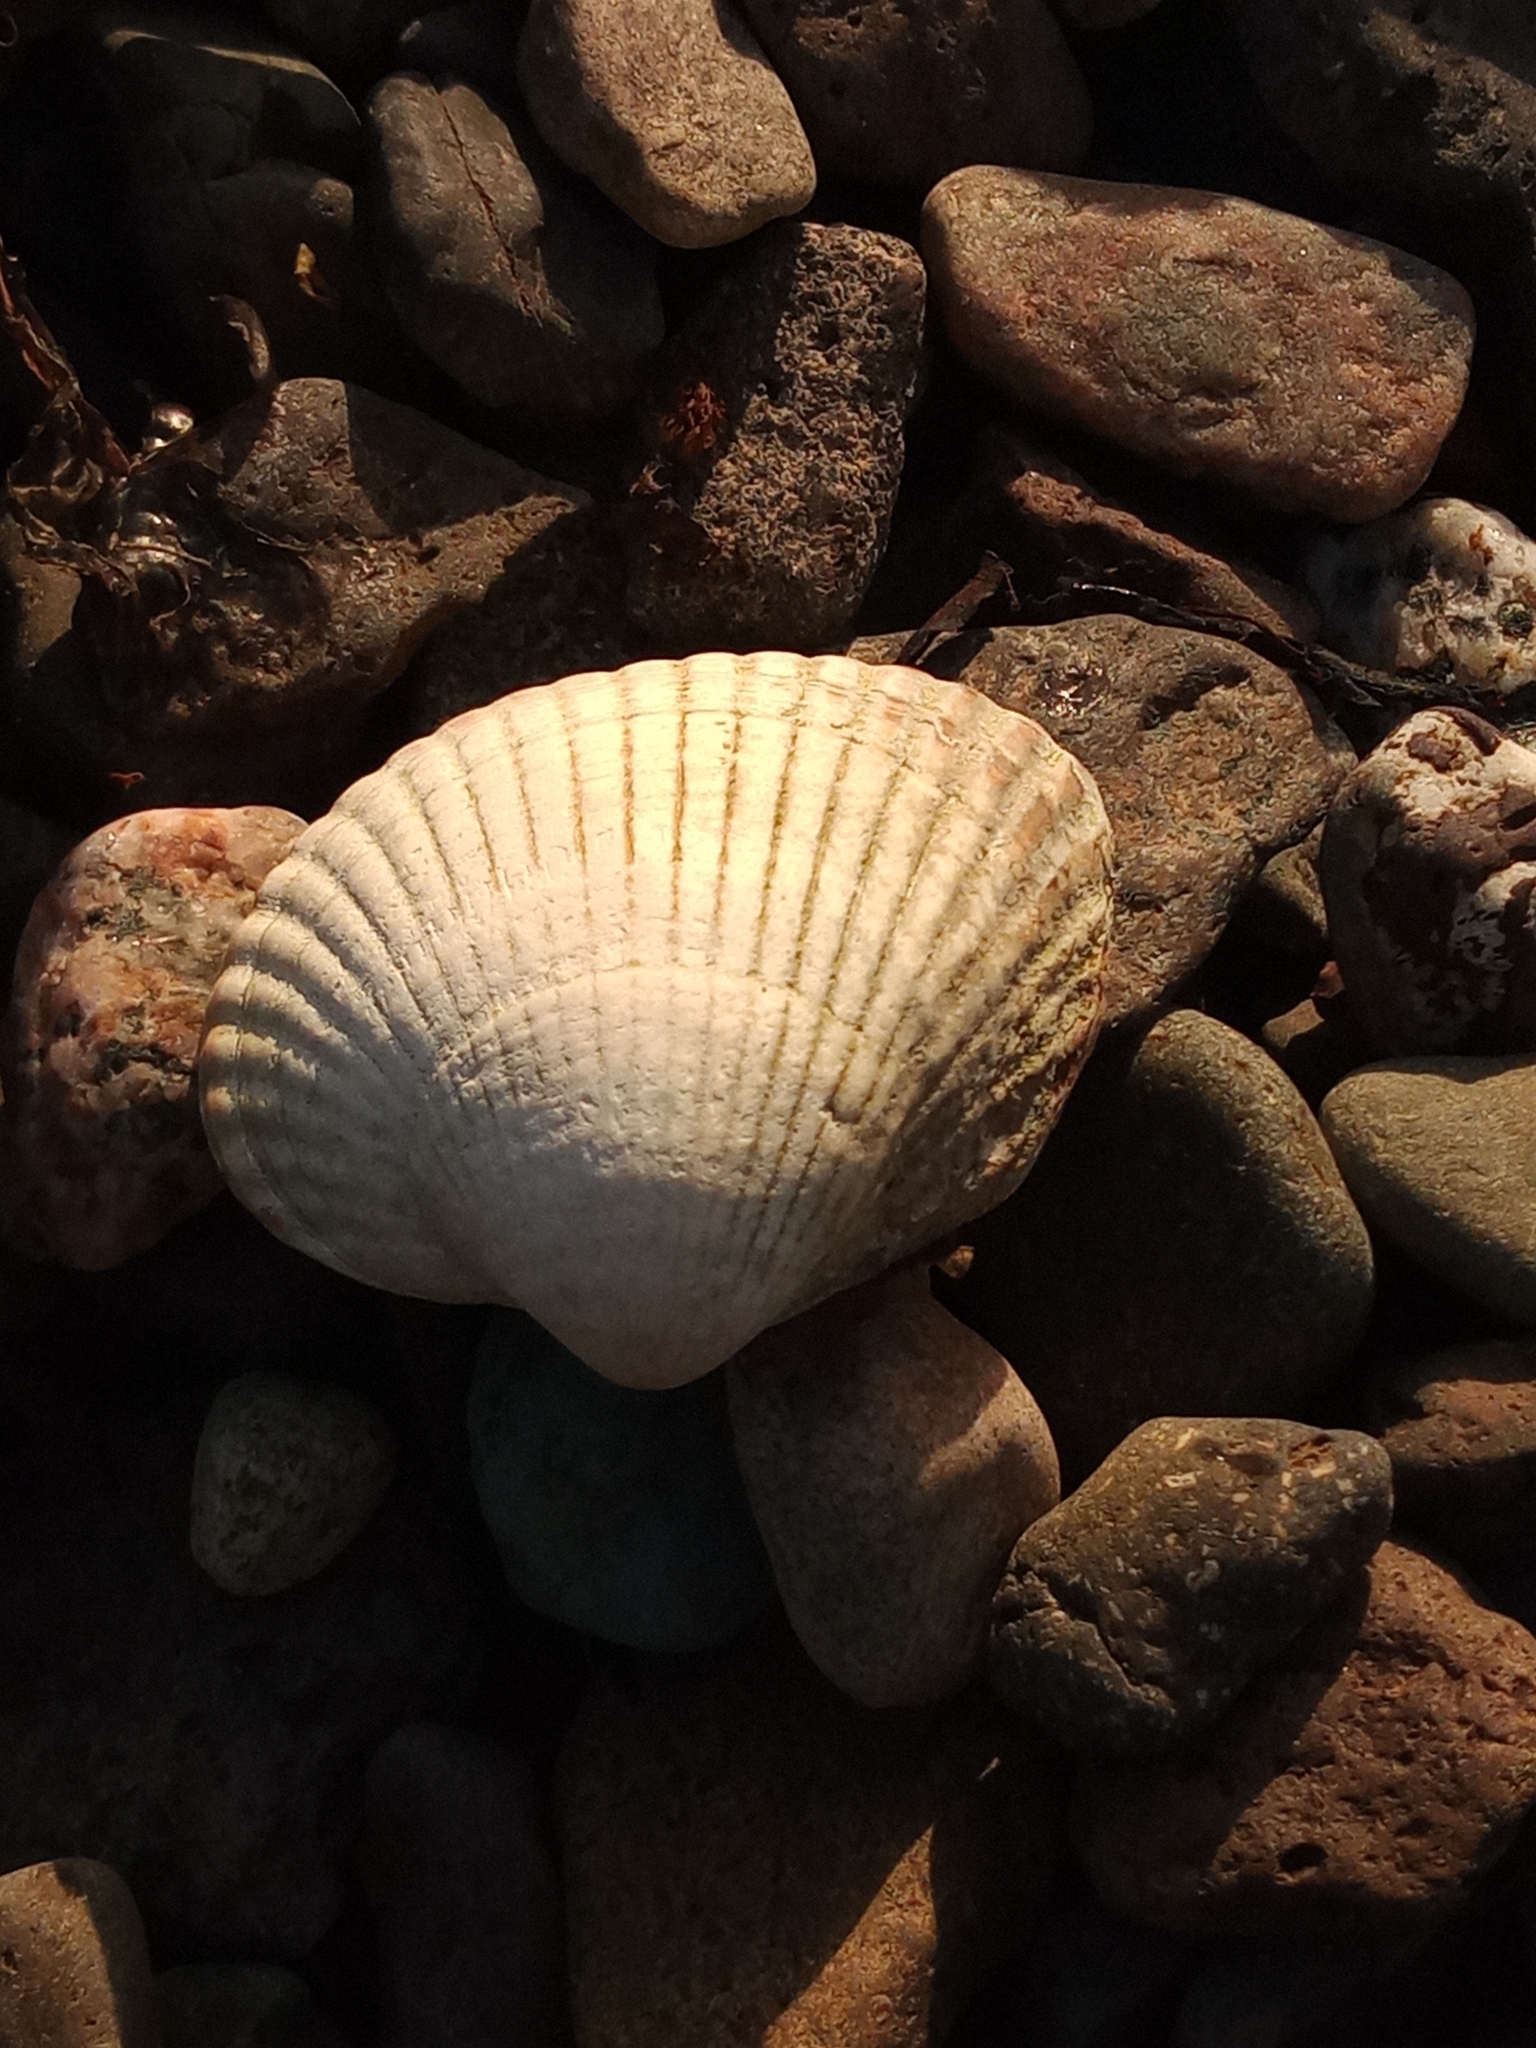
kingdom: Animalia
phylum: Mollusca
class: Bivalvia
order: Cardiida
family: Cardiidae
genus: Cerastoderma
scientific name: Cerastoderma edule
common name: Common cockle
